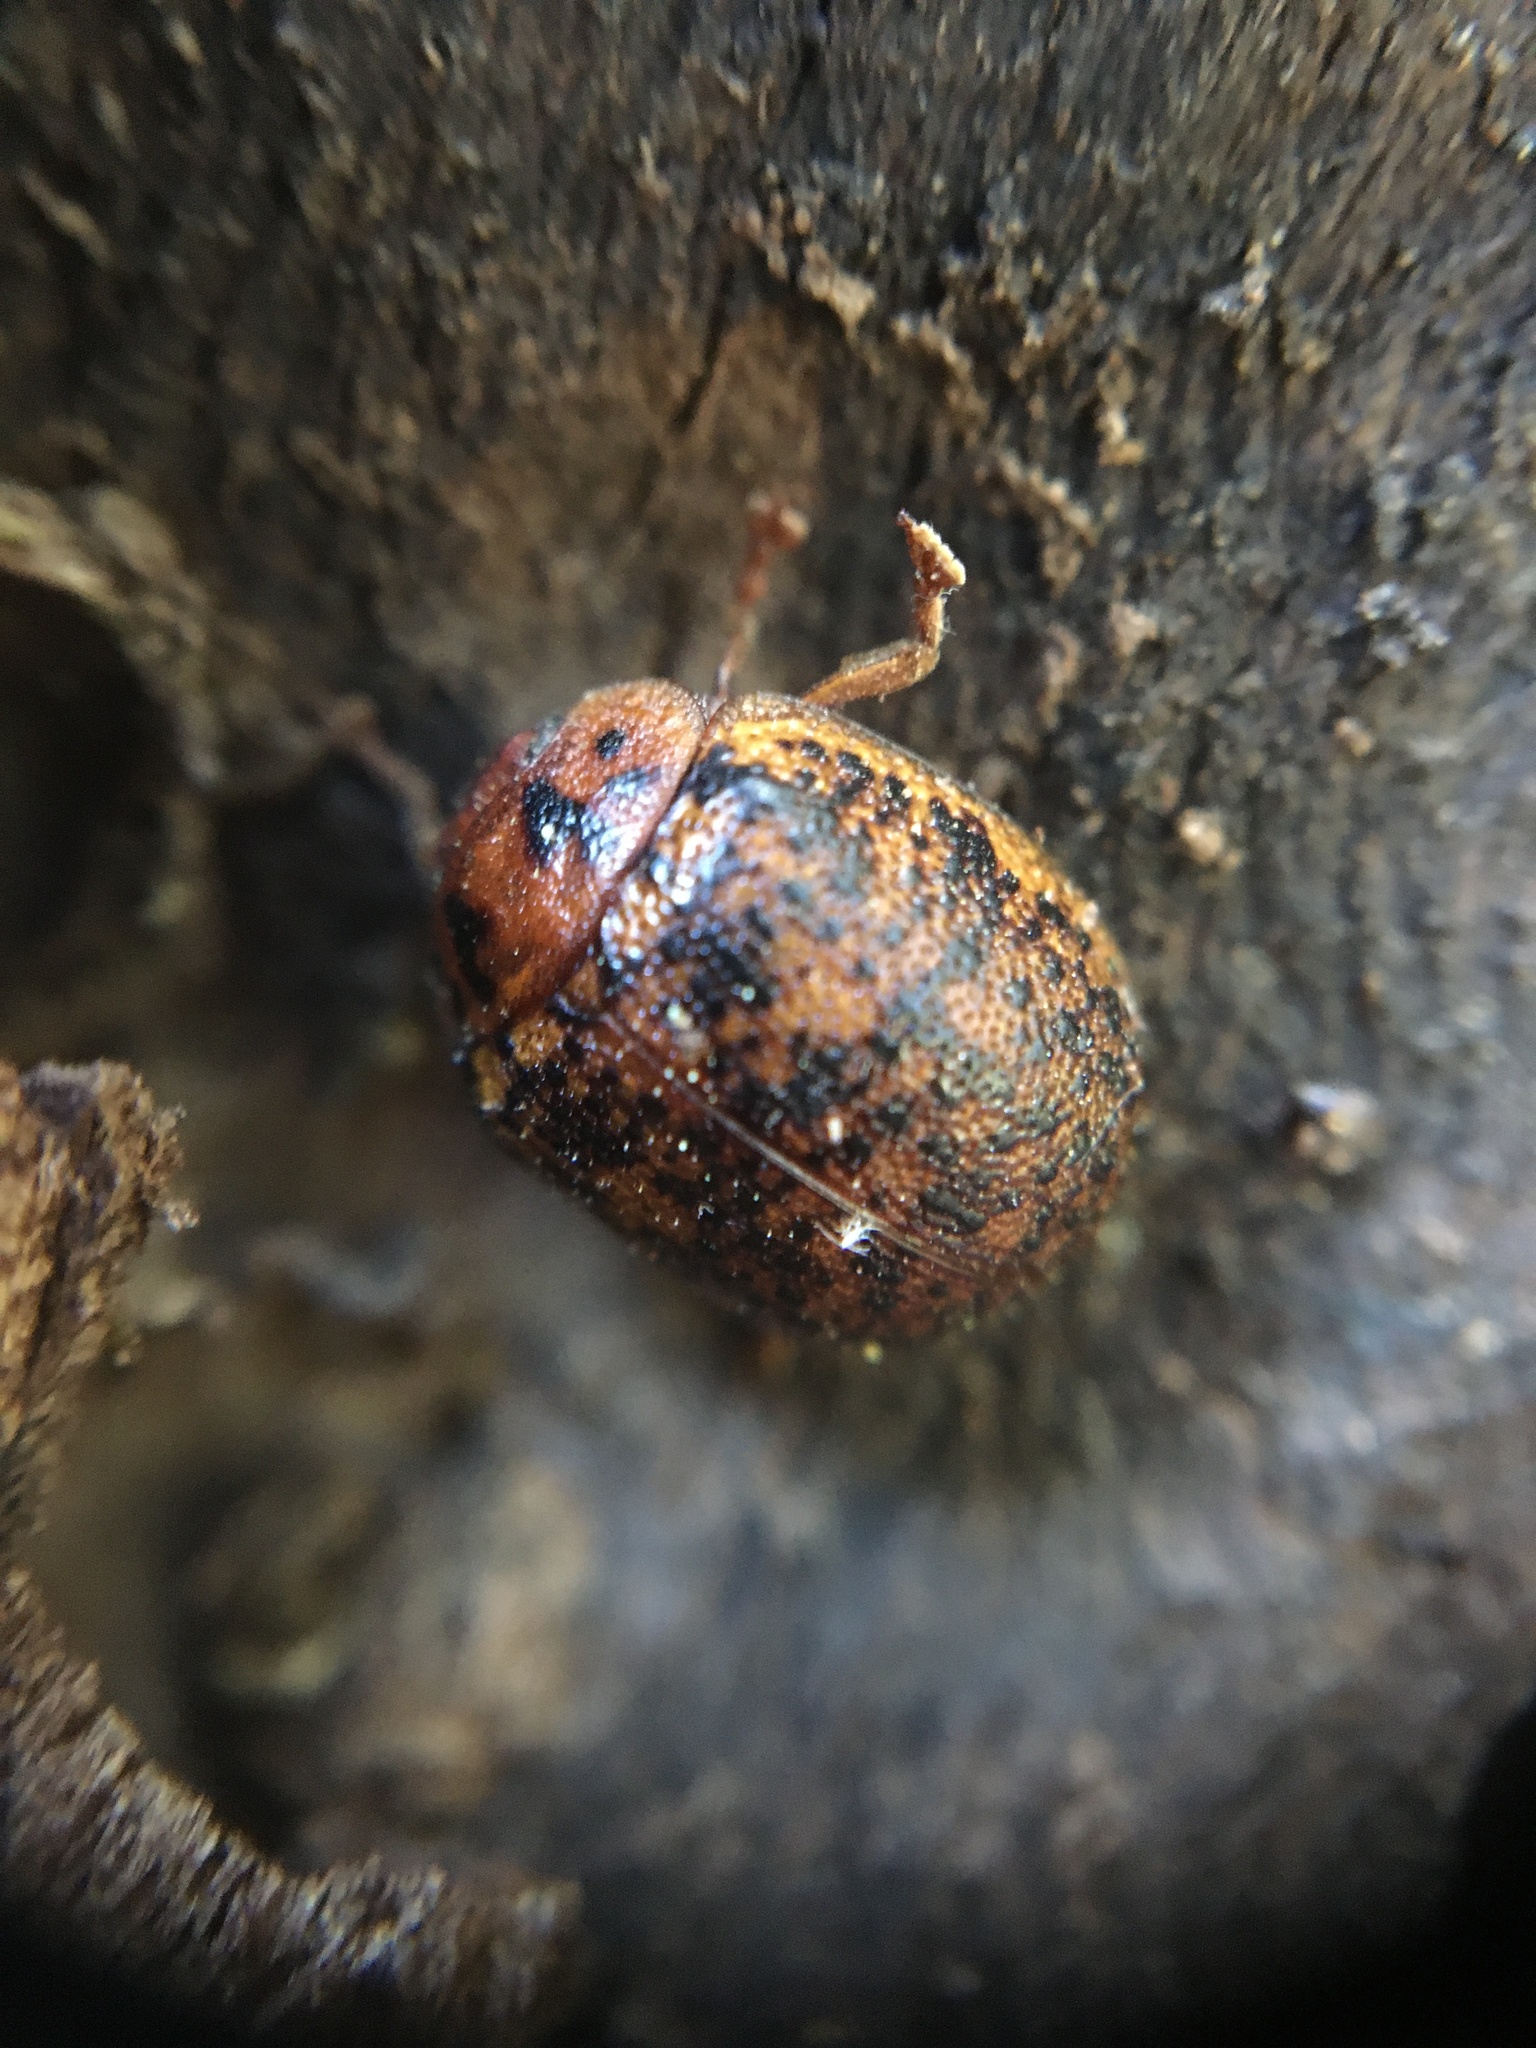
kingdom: Animalia
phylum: Arthropoda
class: Insecta
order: Coleoptera
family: Chrysomelidae
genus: Trachymela
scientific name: Trachymela sloanei
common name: Australian tortoise beetle
